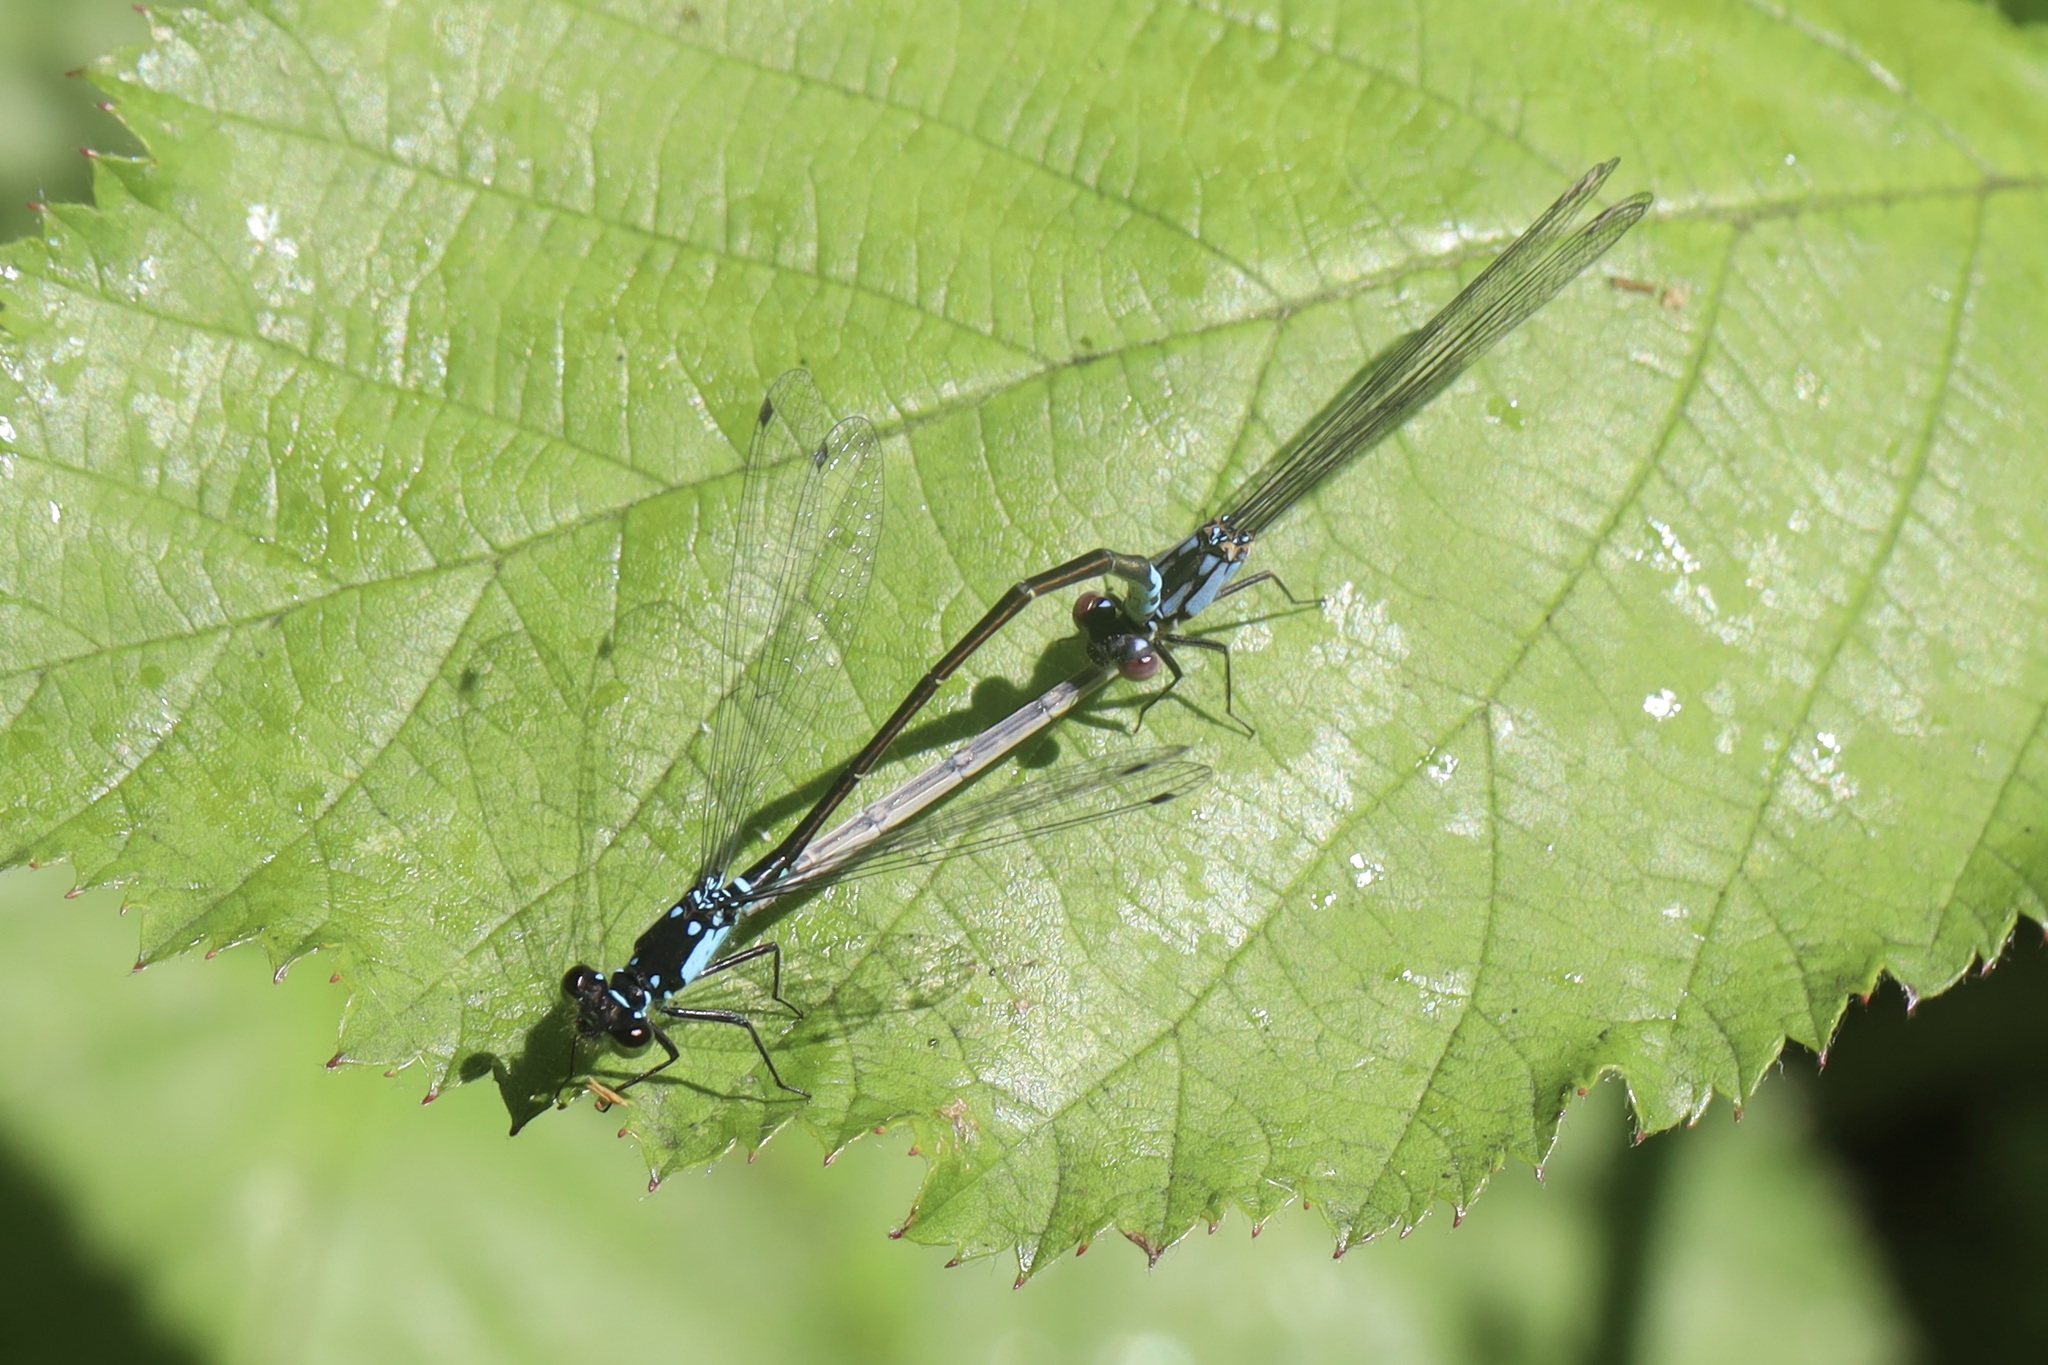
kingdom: Animalia
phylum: Arthropoda
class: Insecta
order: Odonata
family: Coenagrionidae
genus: Ischnura
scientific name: Ischnura cervula
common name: Pacific forktail
